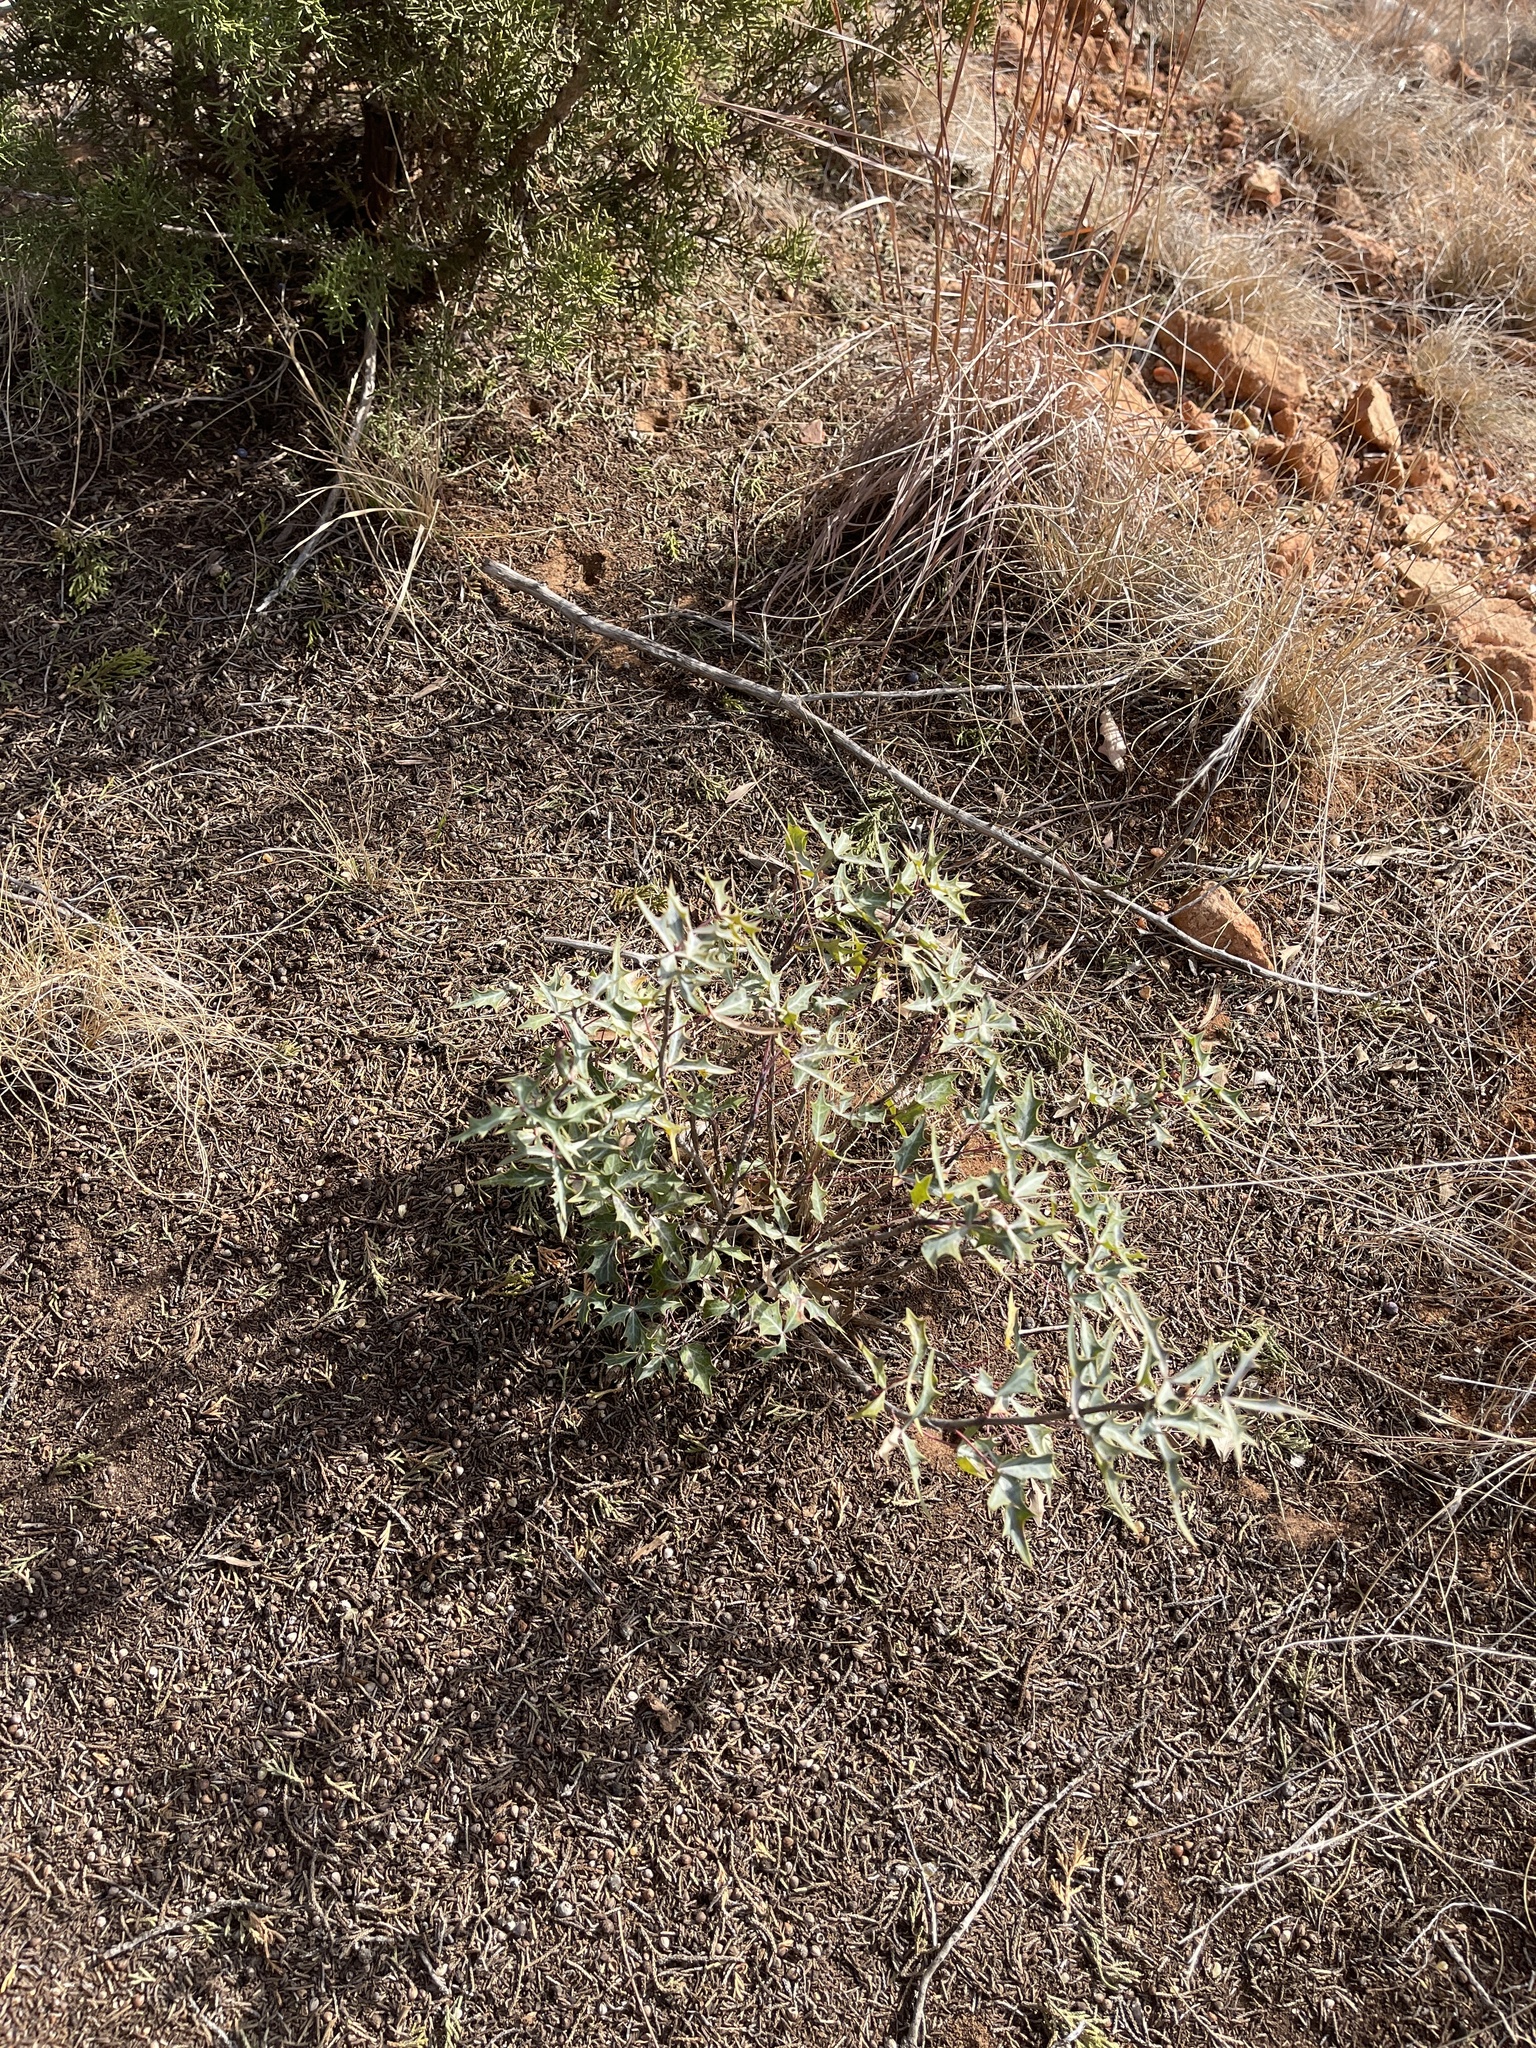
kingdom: Plantae
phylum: Tracheophyta
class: Magnoliopsida
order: Ranunculales
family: Berberidaceae
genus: Alloberberis
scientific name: Alloberberis trifoliolata
